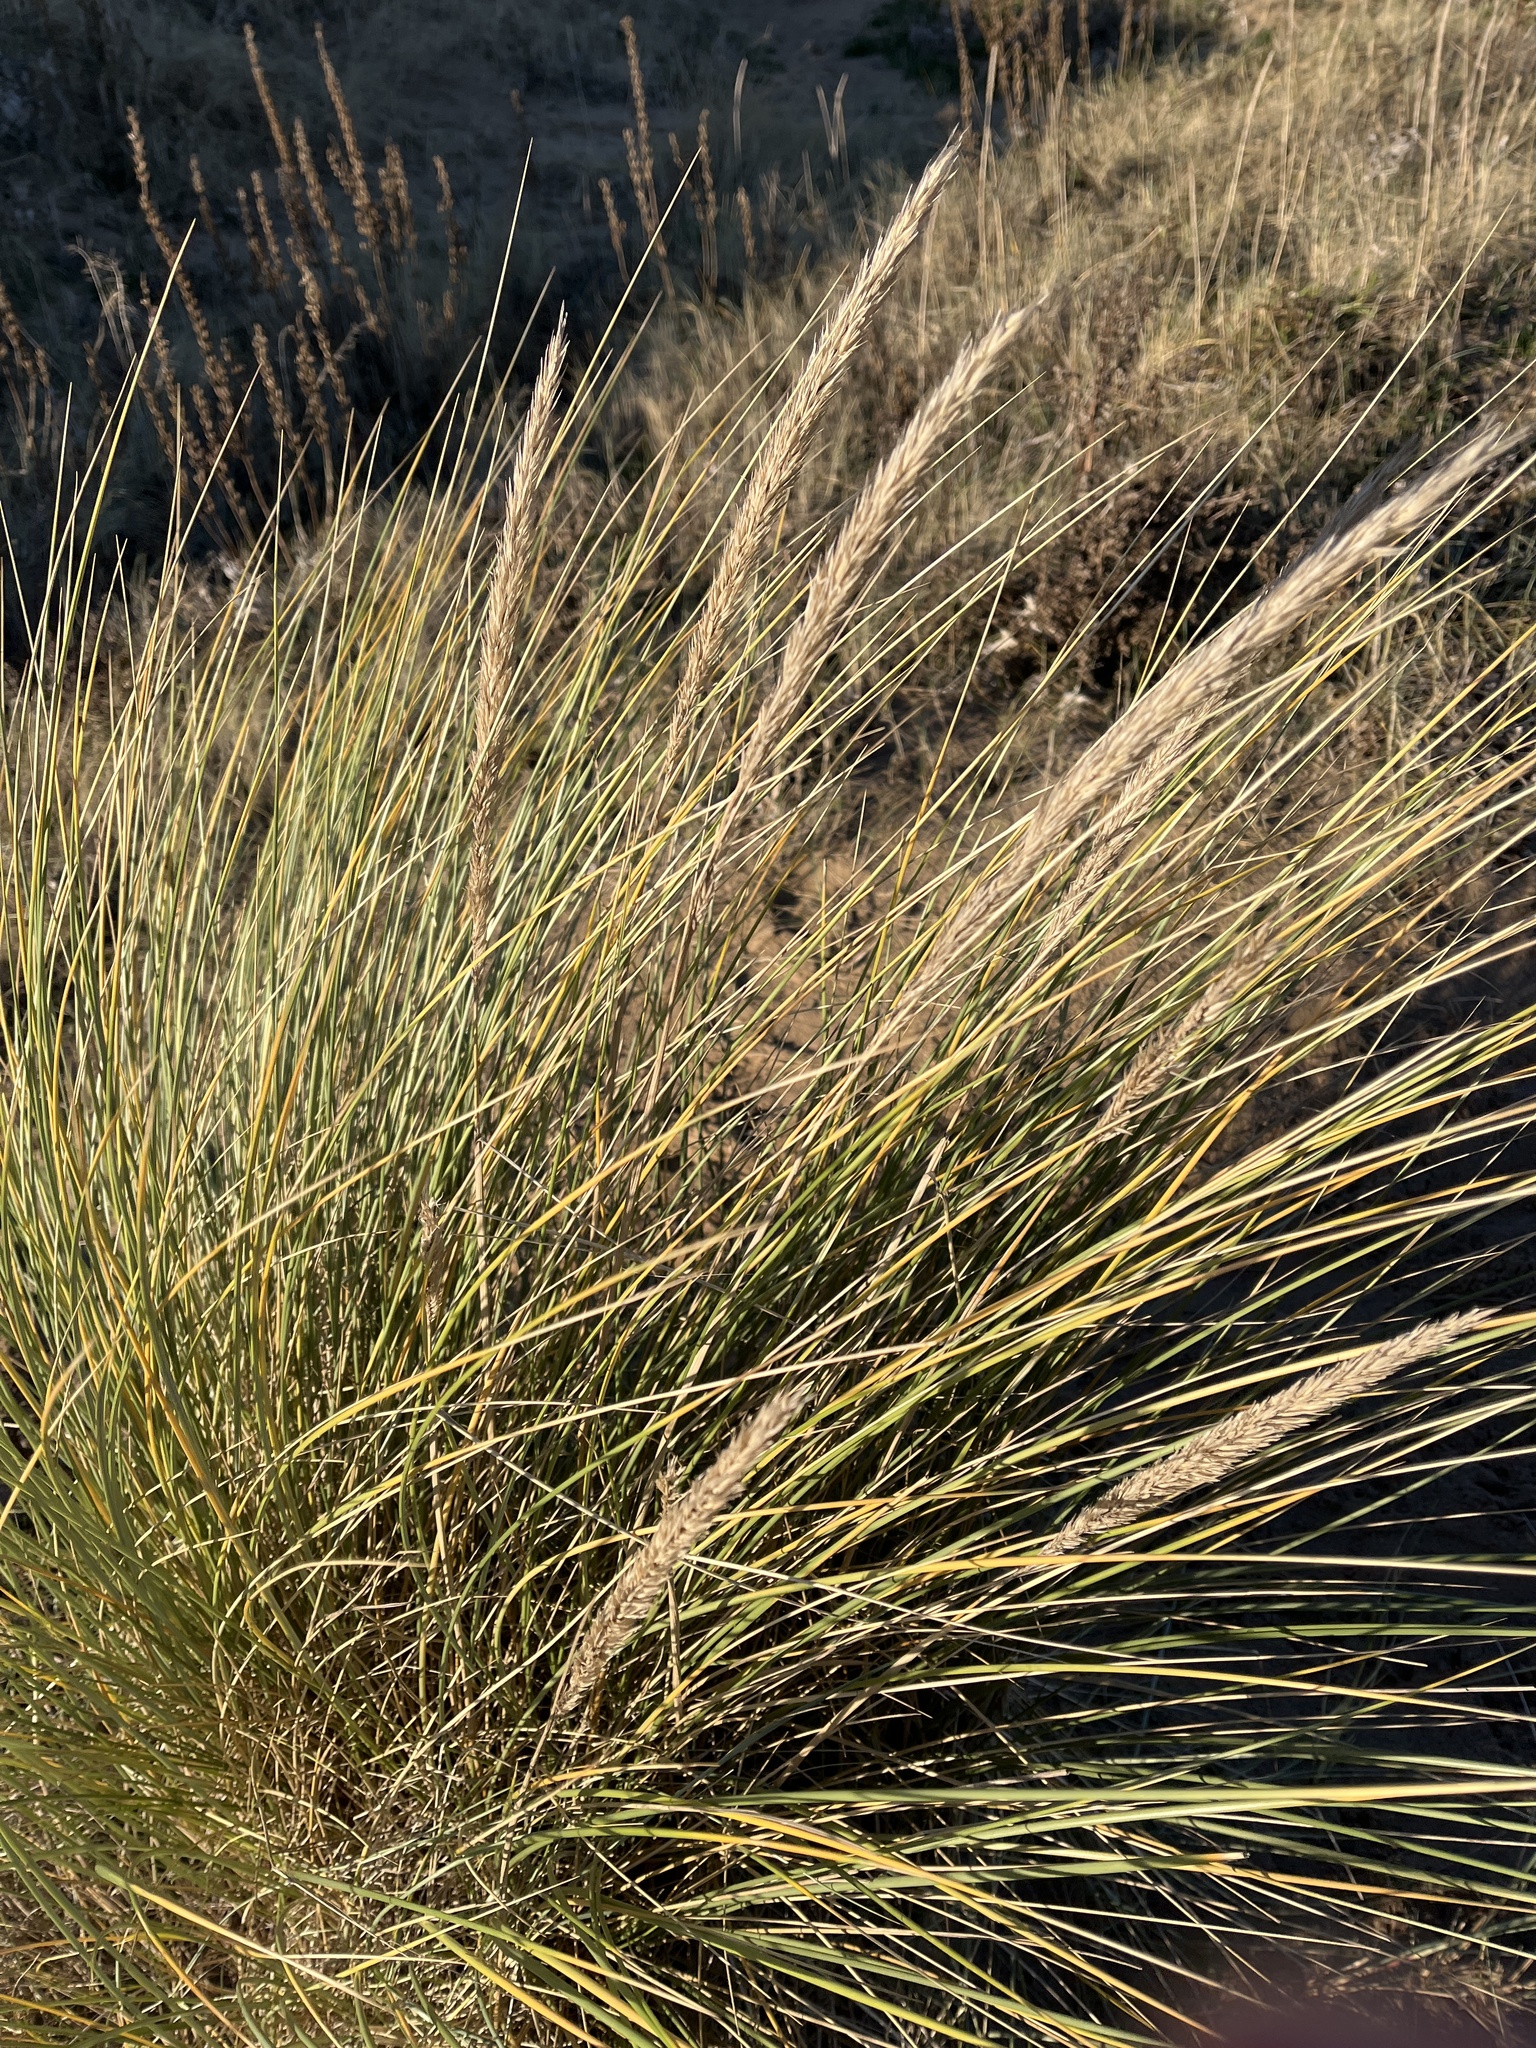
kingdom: Plantae
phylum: Tracheophyta
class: Liliopsida
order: Poales
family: Poaceae
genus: Calamagrostis
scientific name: Calamagrostis arenaria
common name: European beachgrass
